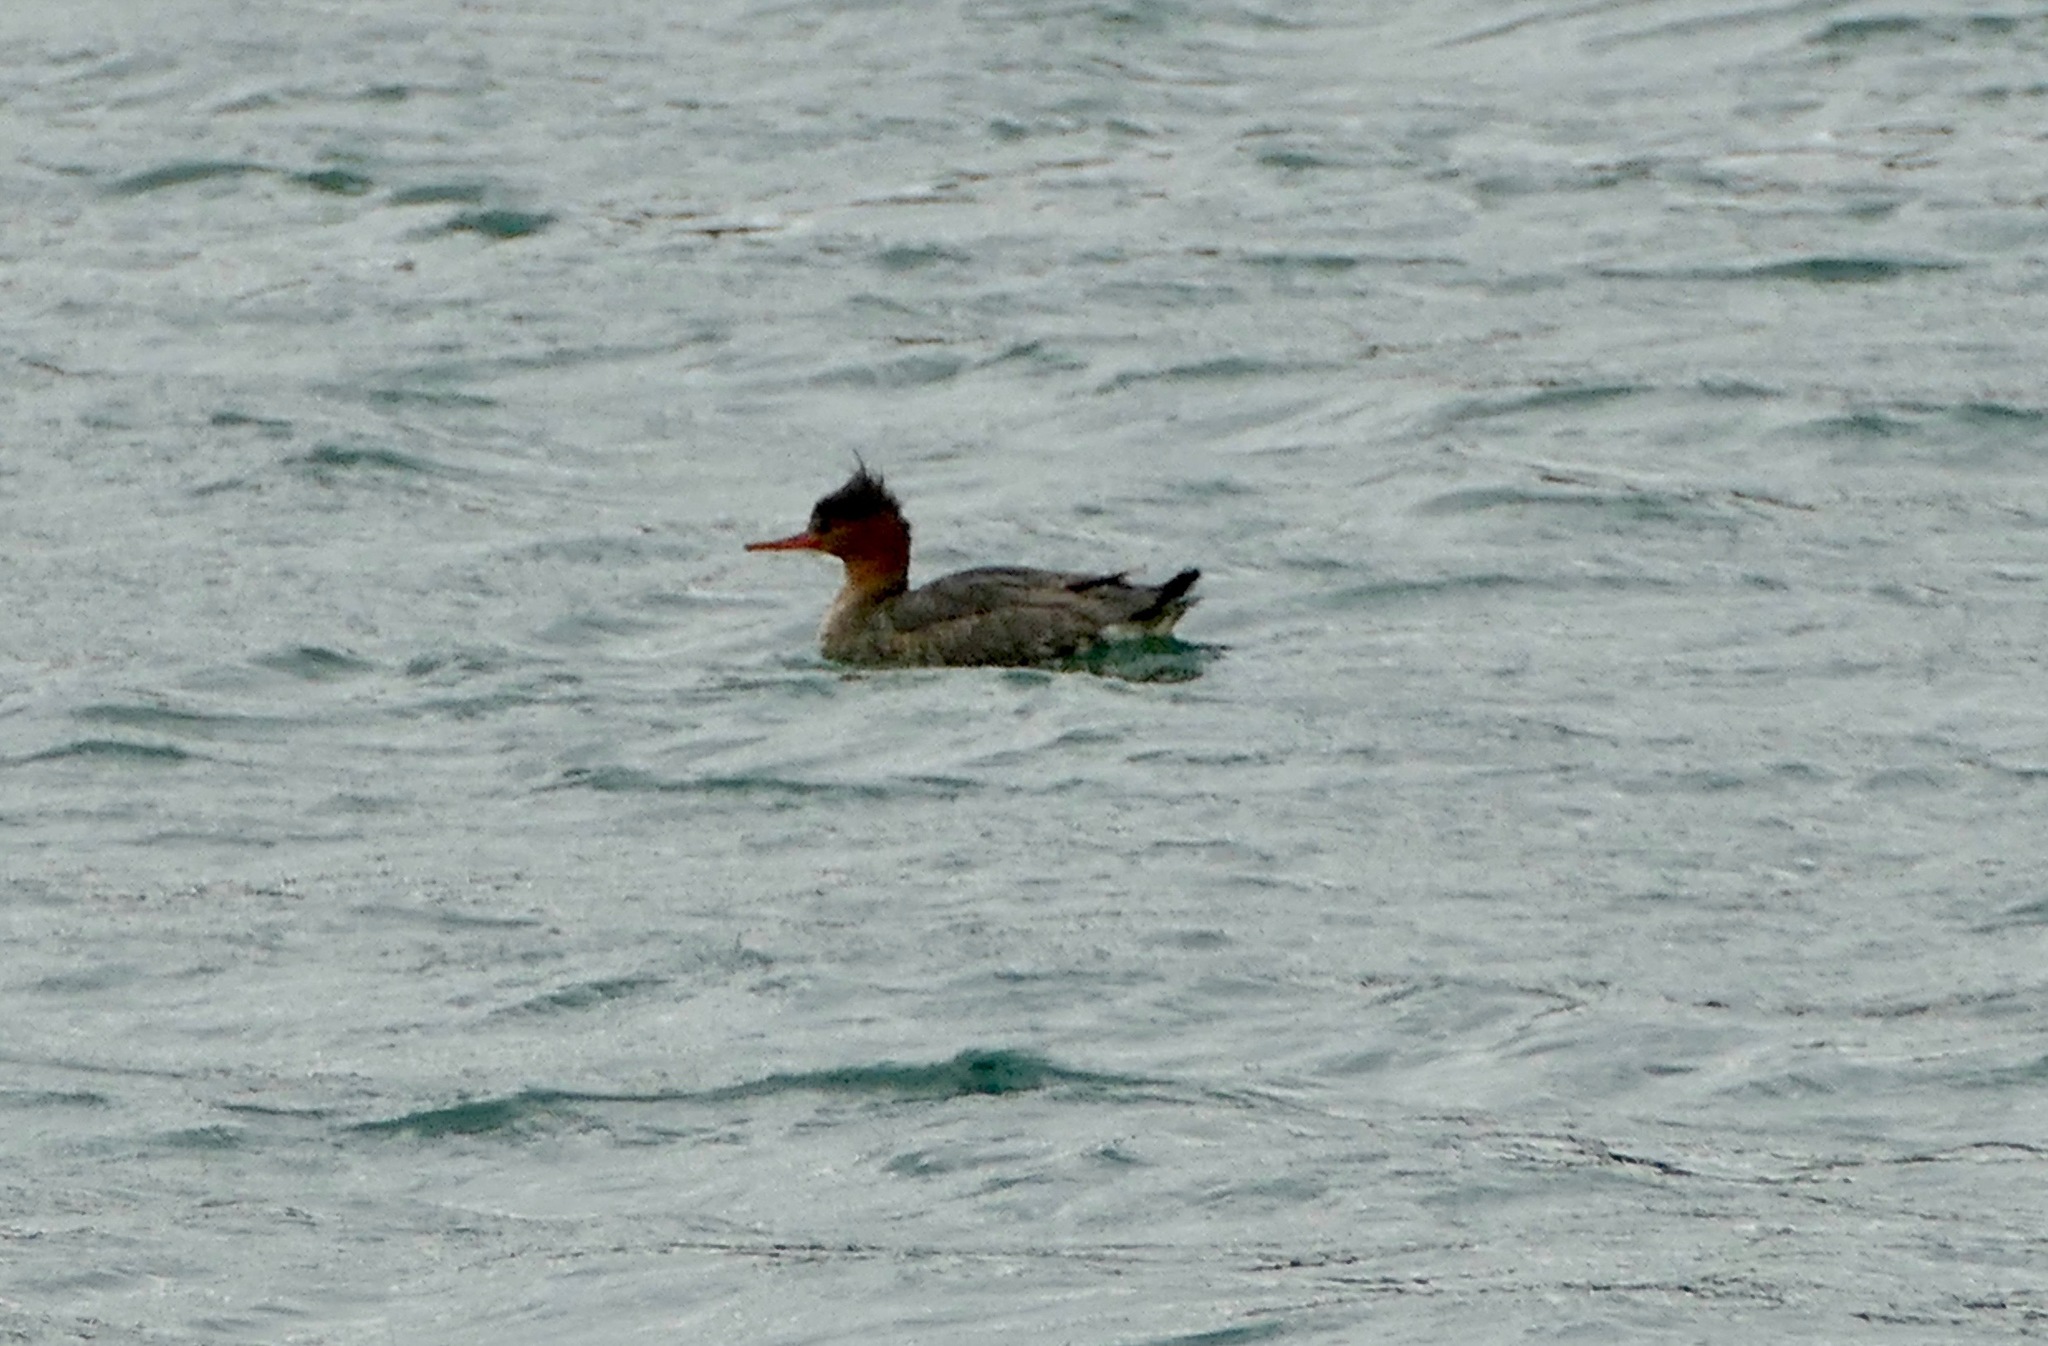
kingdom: Animalia
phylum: Chordata
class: Aves
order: Anseriformes
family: Anatidae
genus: Mergus
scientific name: Mergus serrator
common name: Red-breasted merganser
